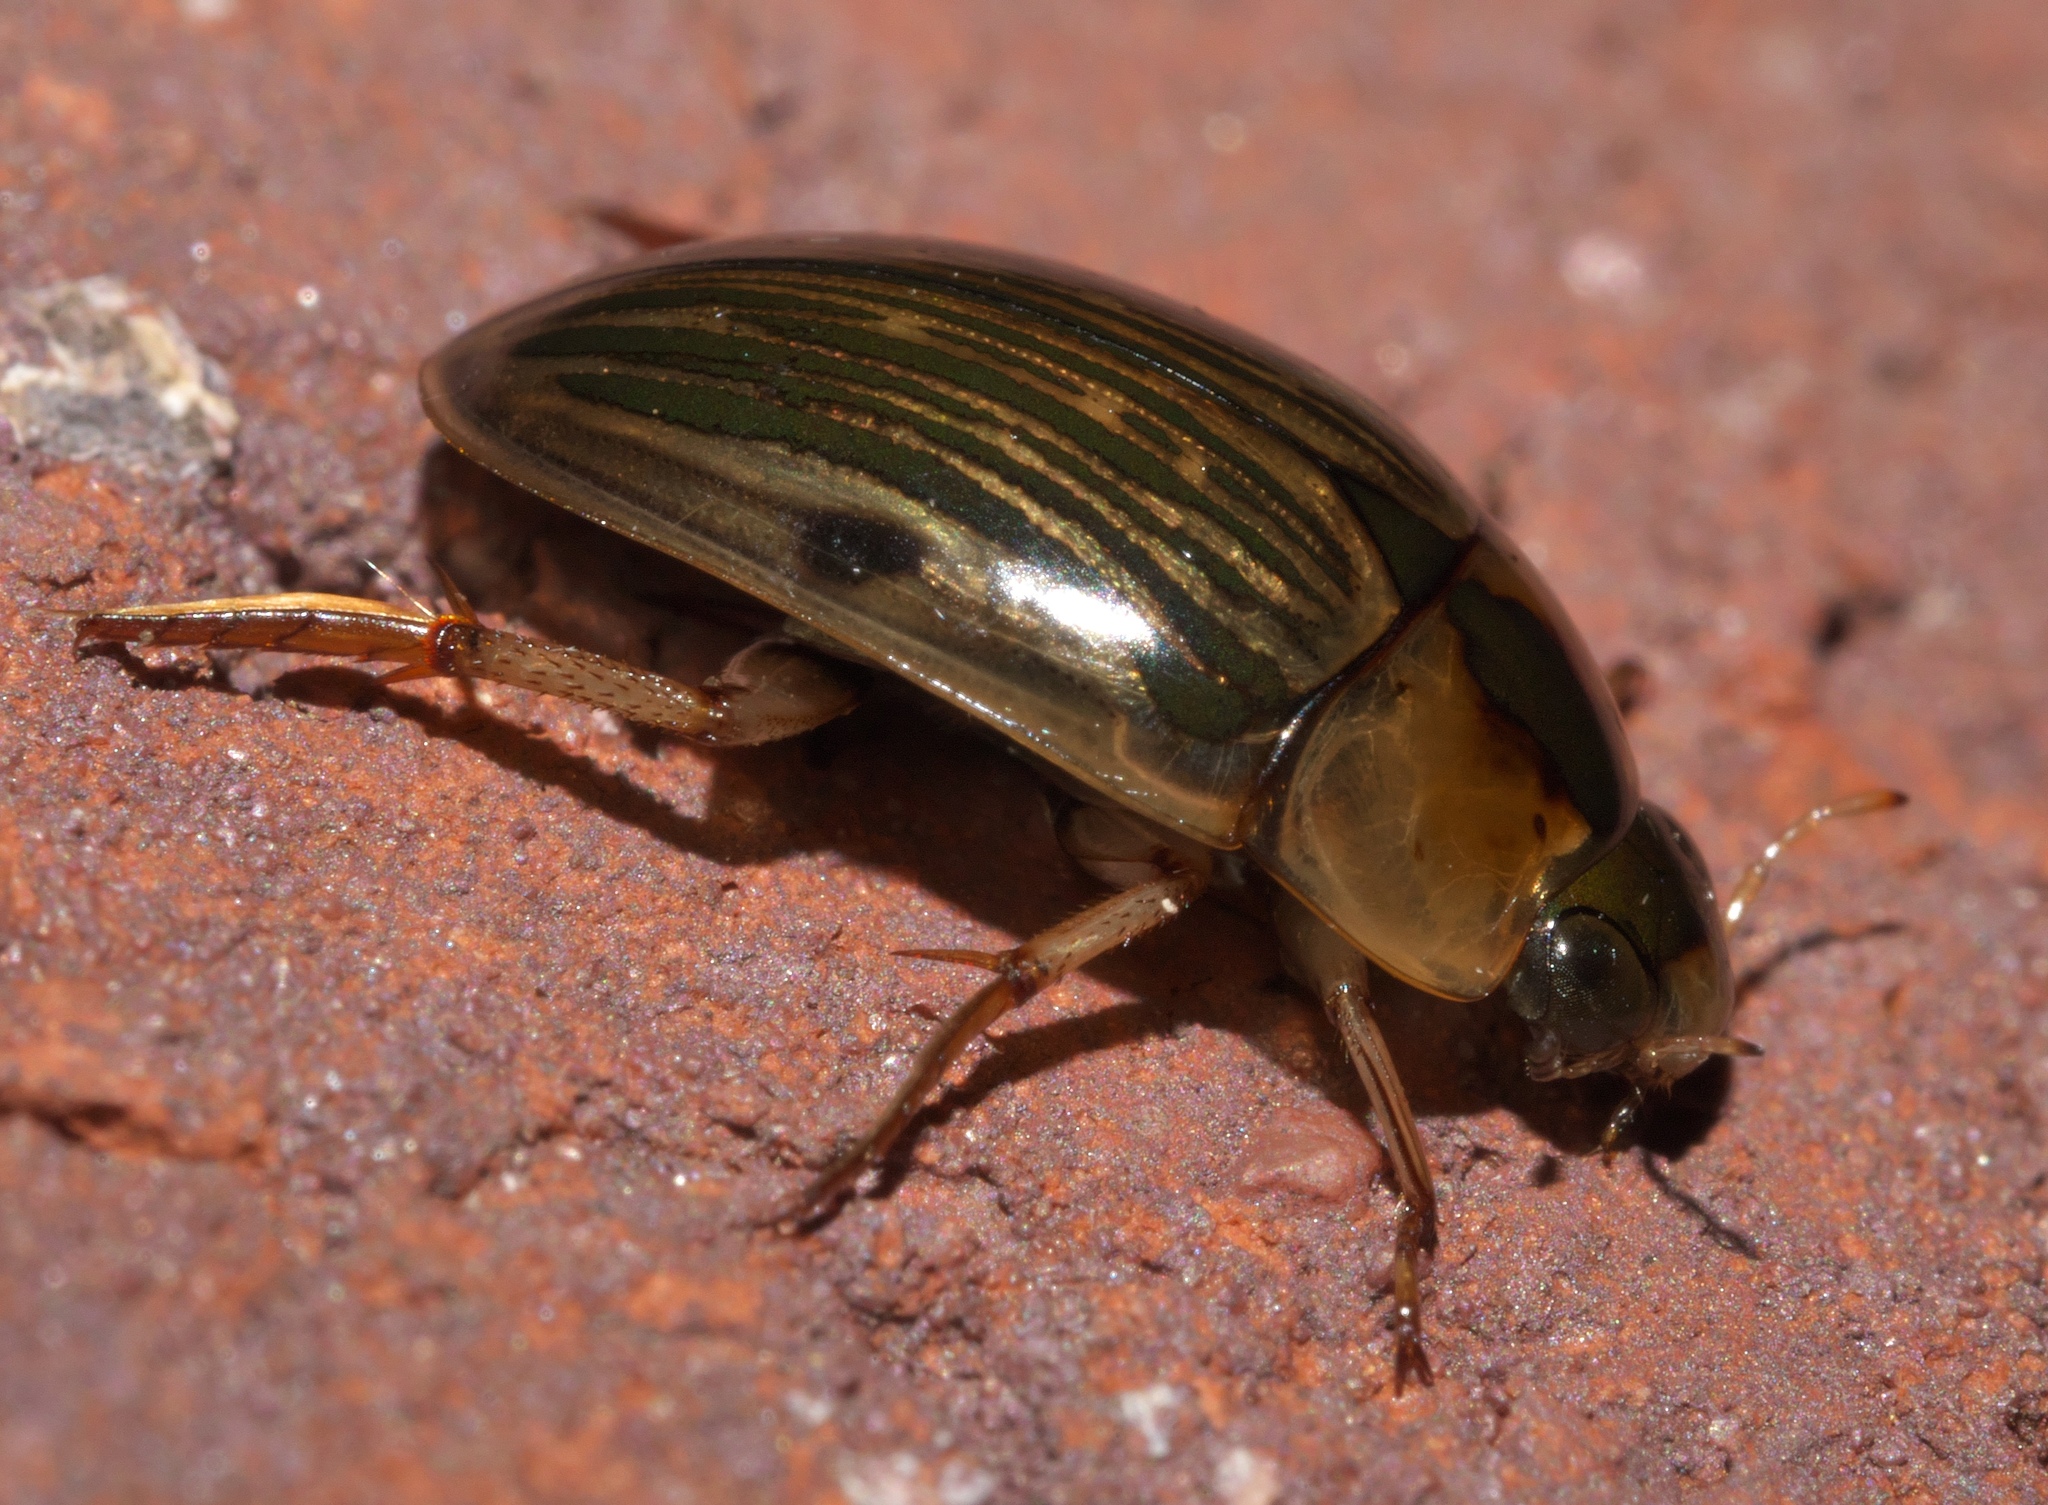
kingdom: Animalia
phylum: Arthropoda
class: Insecta
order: Coleoptera
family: Hydrophilidae
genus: Tropisternus
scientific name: Tropisternus collaris
